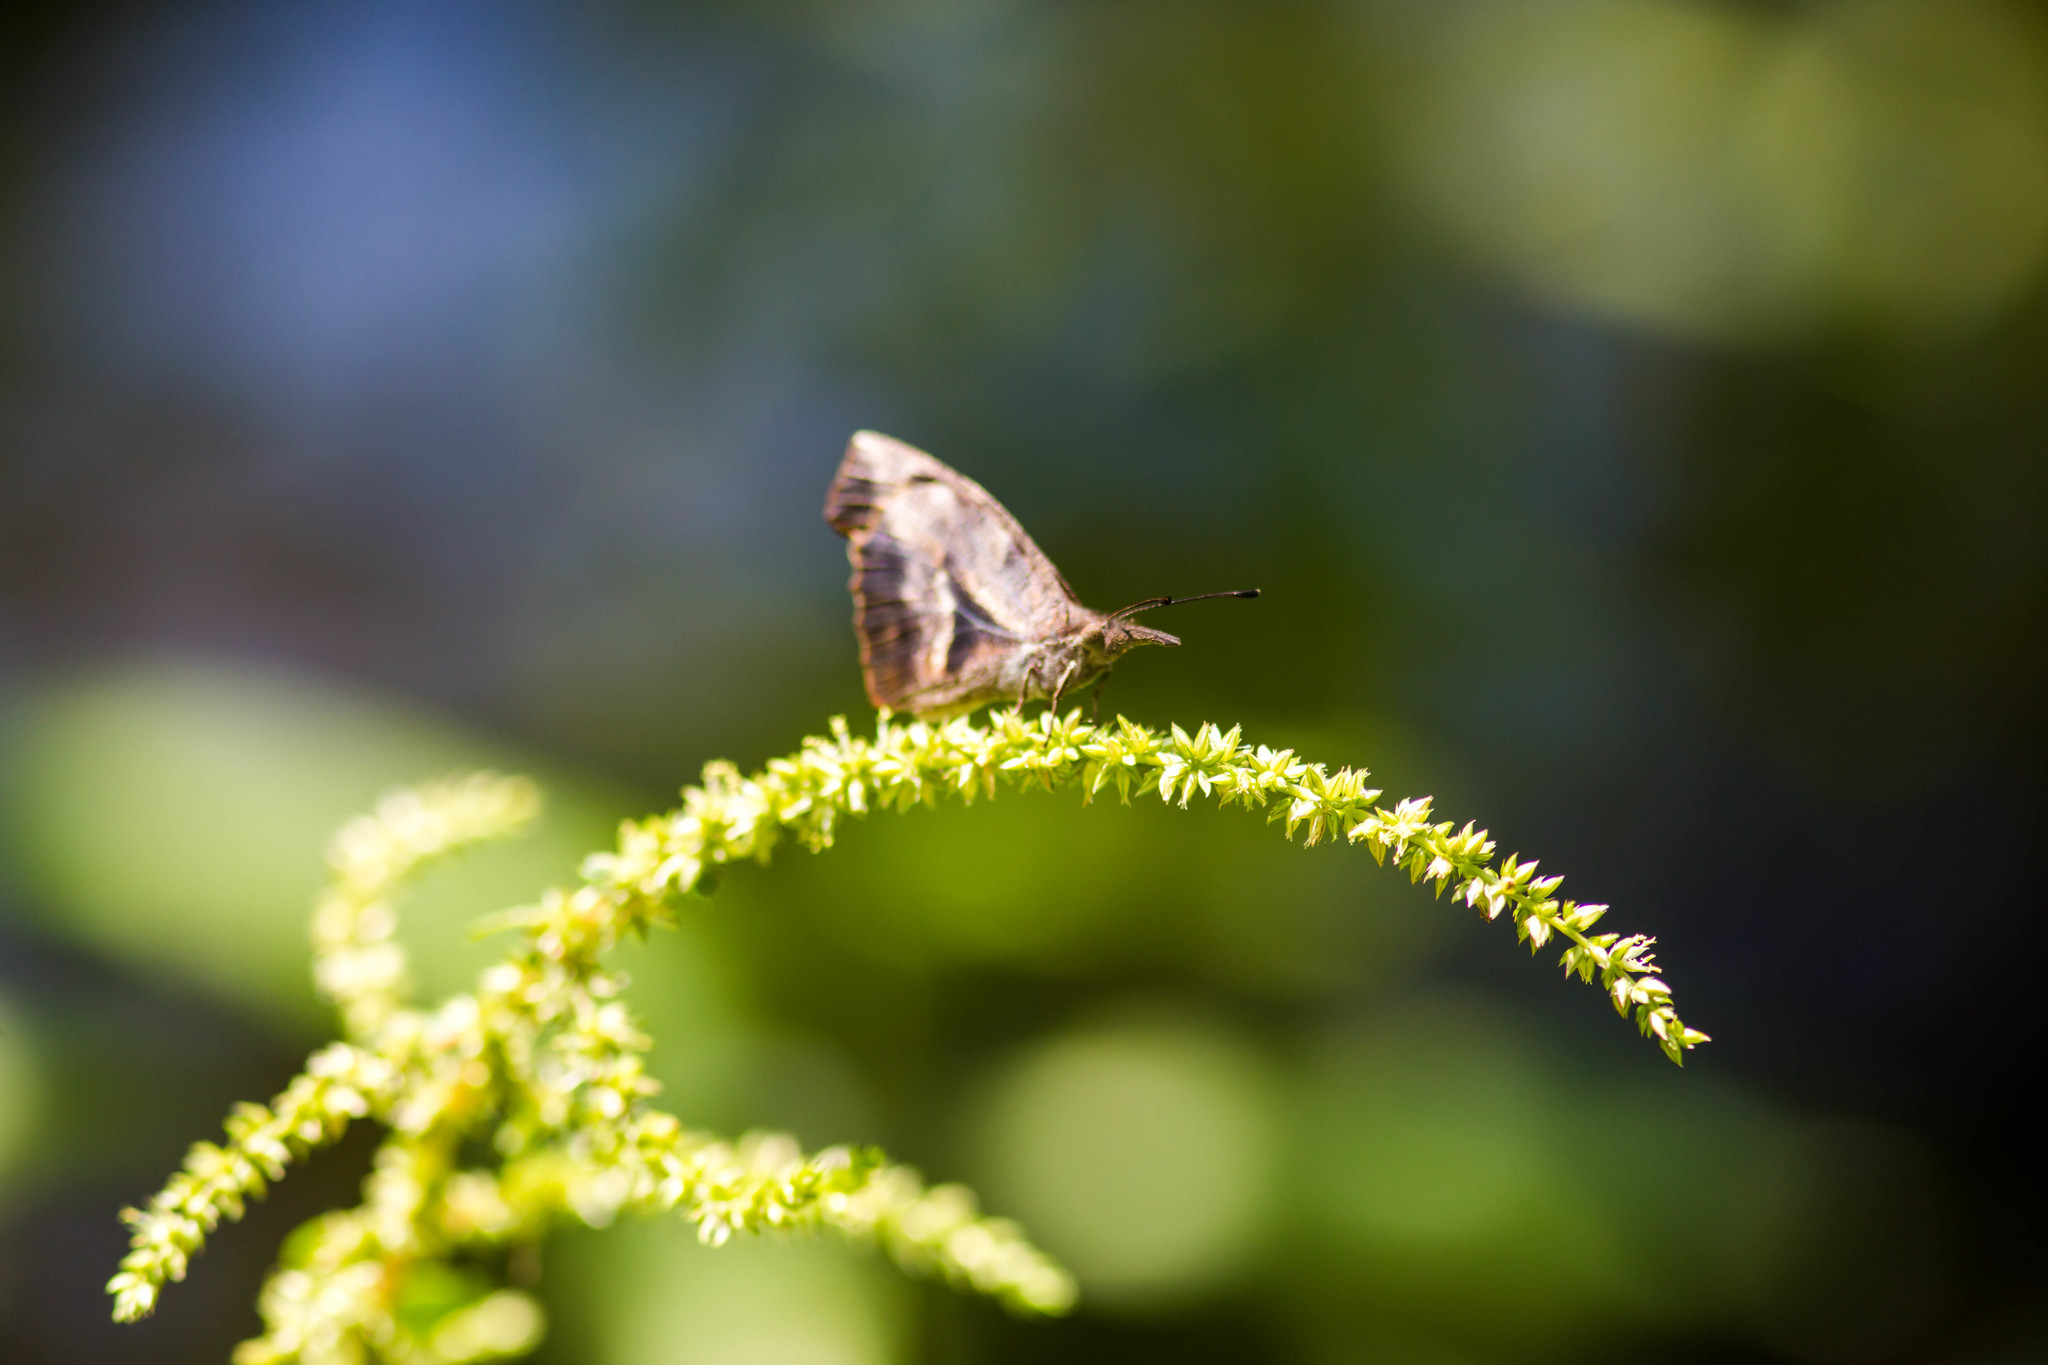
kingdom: Animalia
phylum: Arthropoda
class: Insecta
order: Lepidoptera
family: Nymphalidae
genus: Libytheana
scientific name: Libytheana carinenta
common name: American snout
